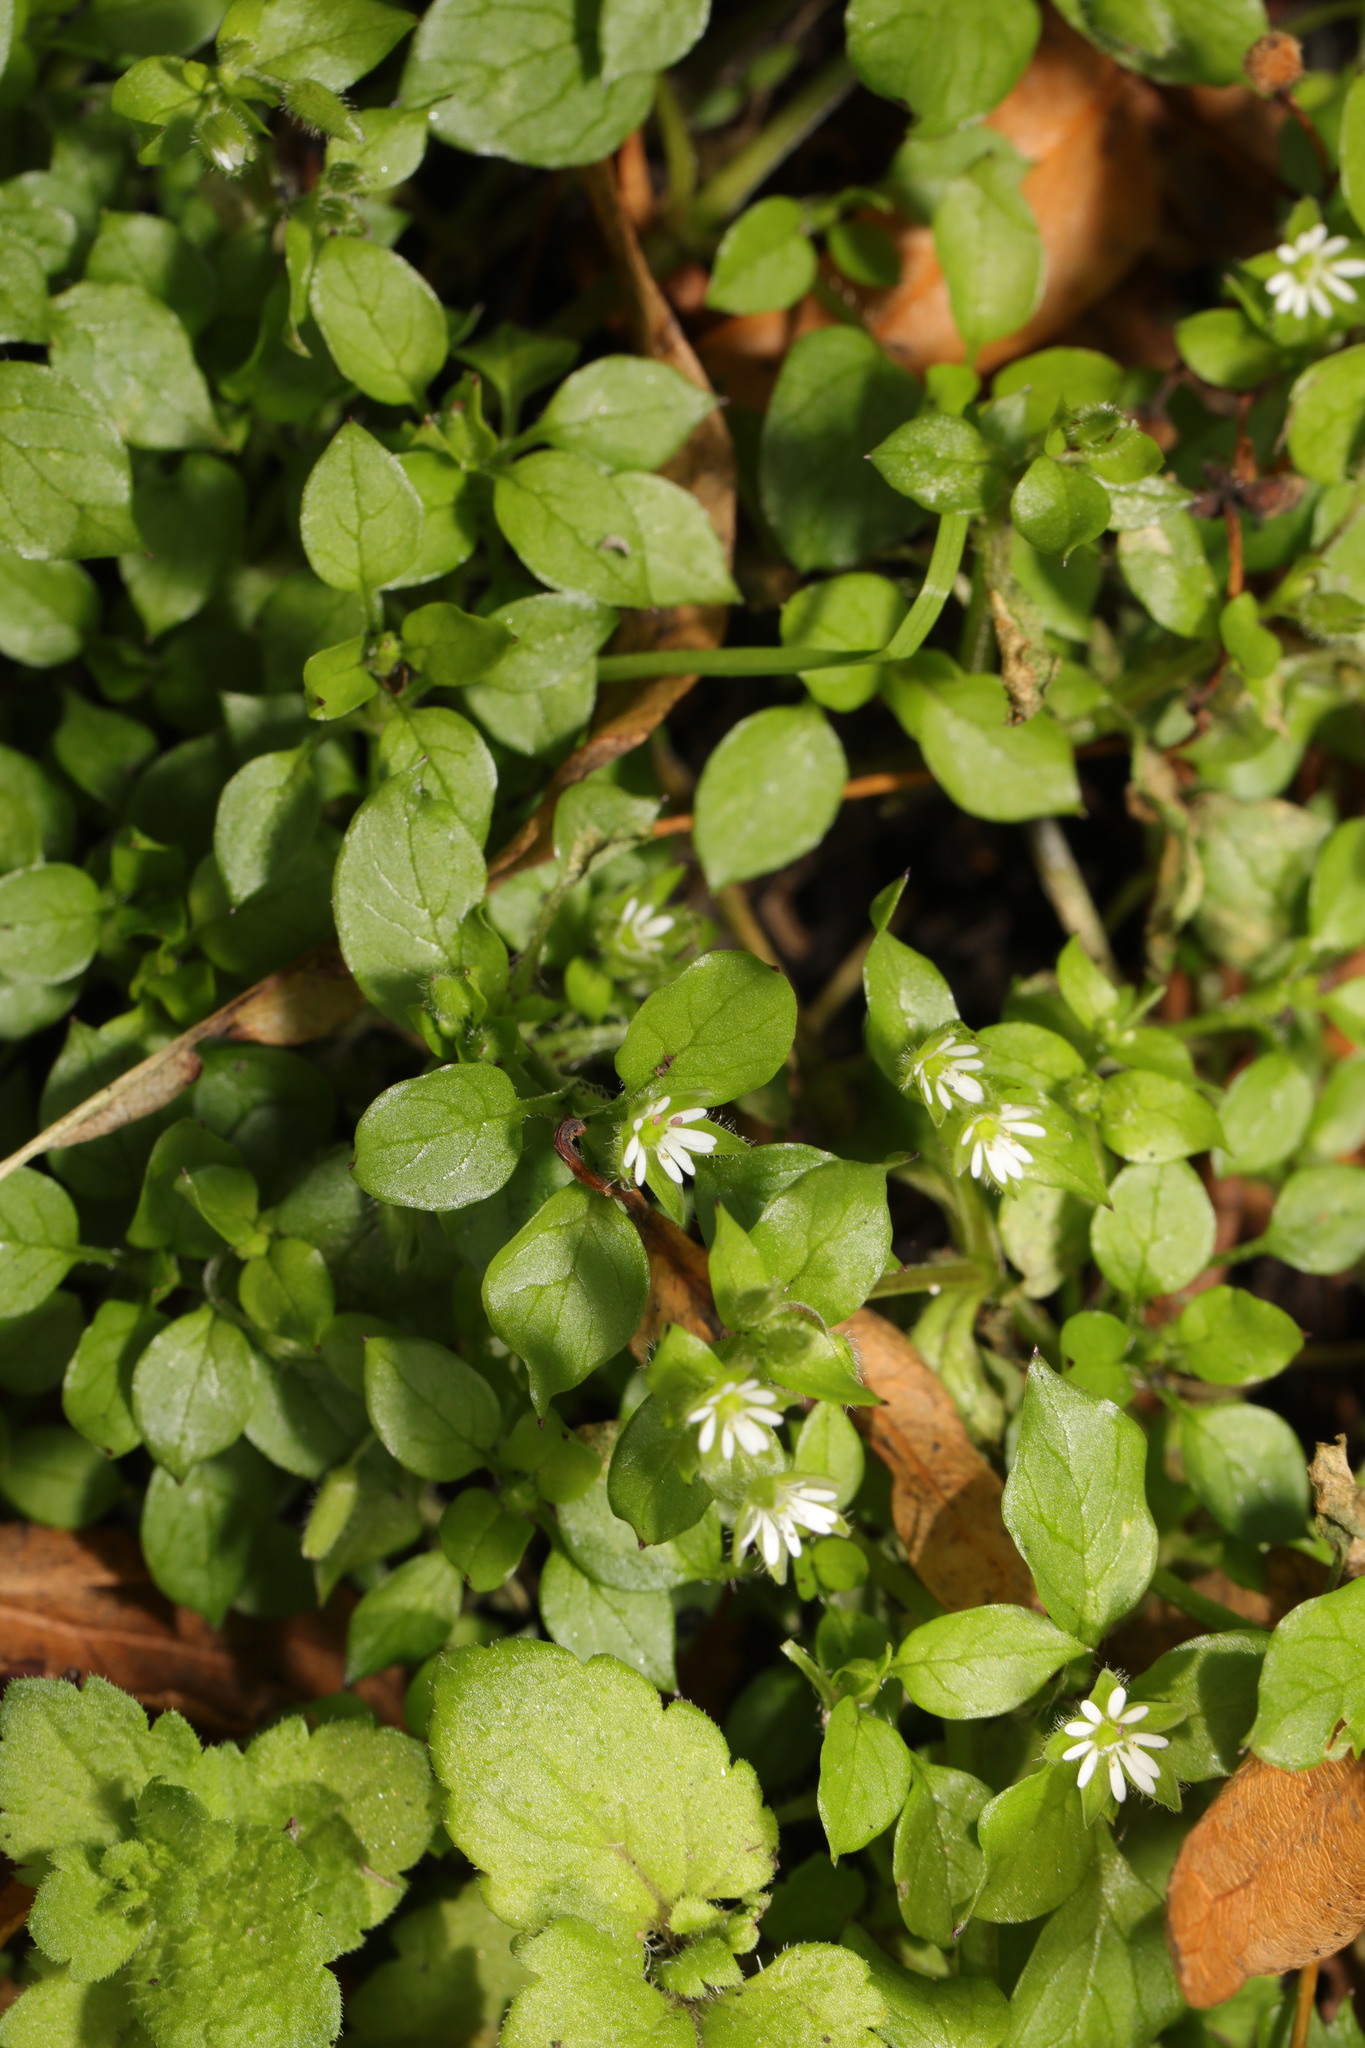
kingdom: Plantae
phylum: Tracheophyta
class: Magnoliopsida
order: Caryophyllales
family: Caryophyllaceae
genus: Stellaria
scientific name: Stellaria media
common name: Common chickweed
